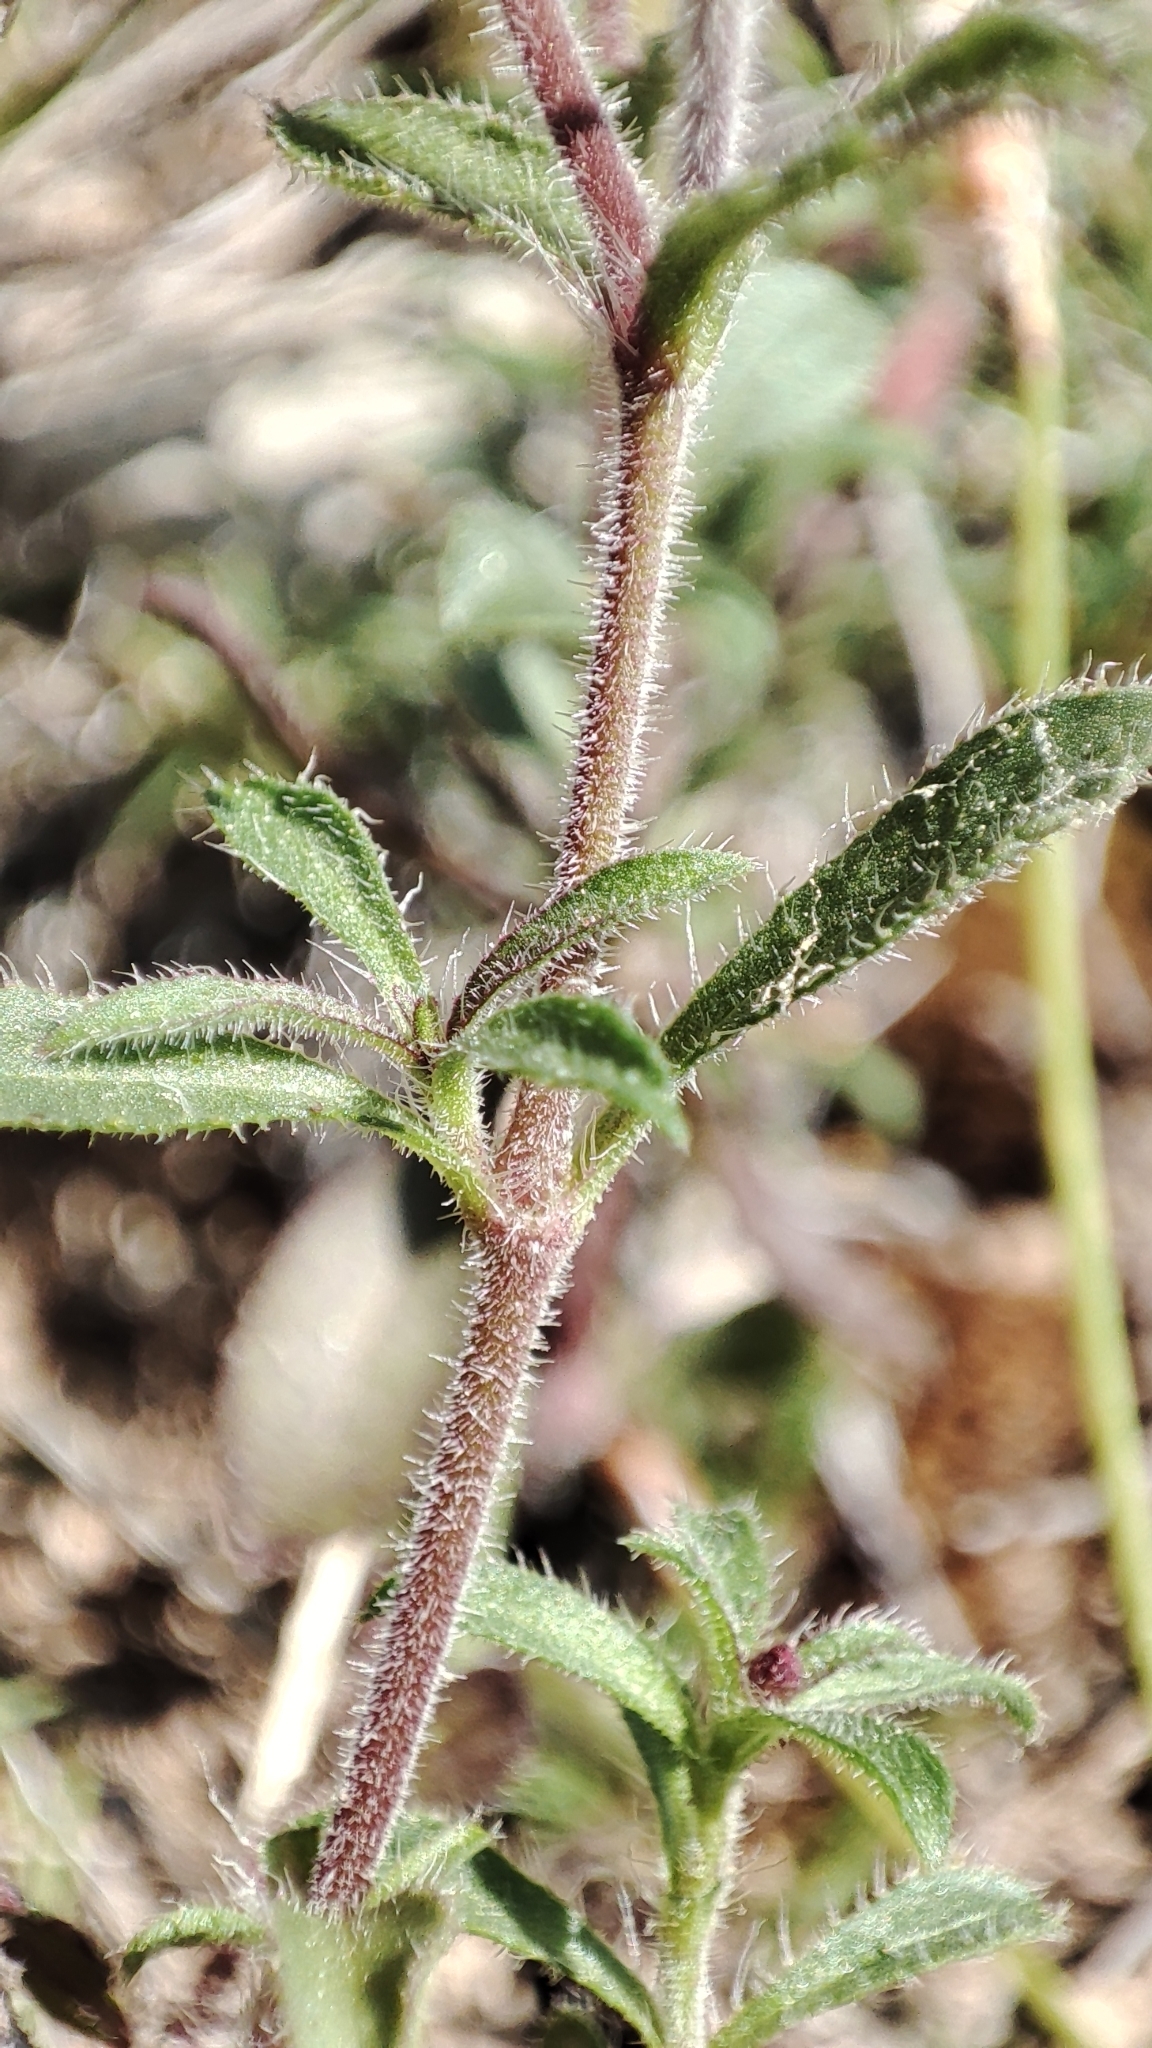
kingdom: Plantae
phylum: Tracheophyta
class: Magnoliopsida
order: Caryophyllales
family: Caryophyllaceae
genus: Saponaria
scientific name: Saponaria ocymoides
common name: Rock soapwort
